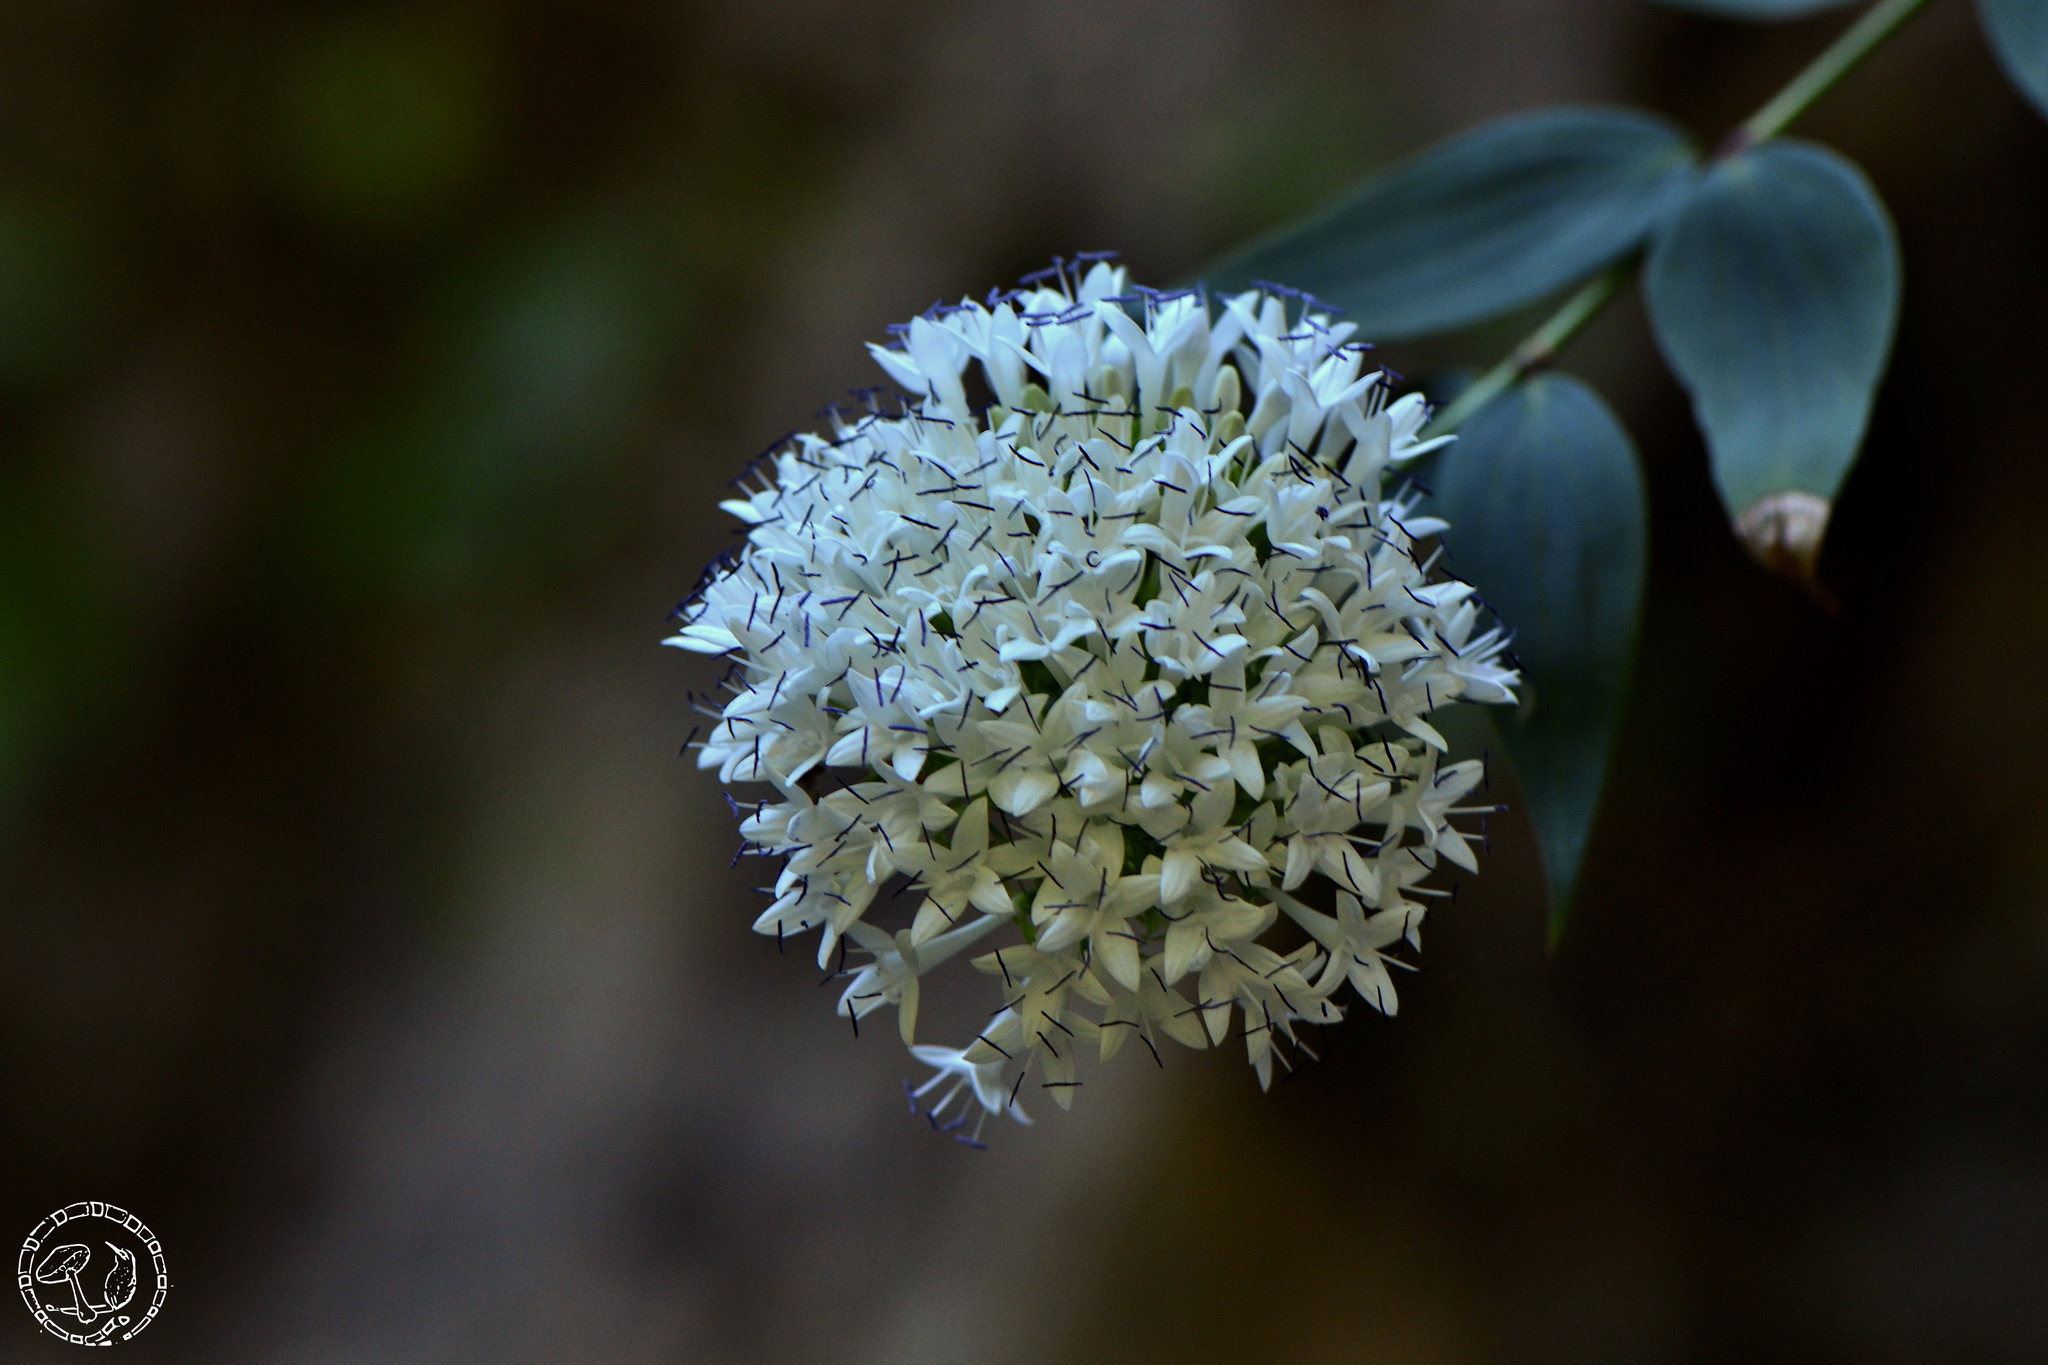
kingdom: Plantae
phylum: Tracheophyta
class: Magnoliopsida
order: Gentianales
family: Rubiaceae
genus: Bouvardia
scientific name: Bouvardia quinquenervata
